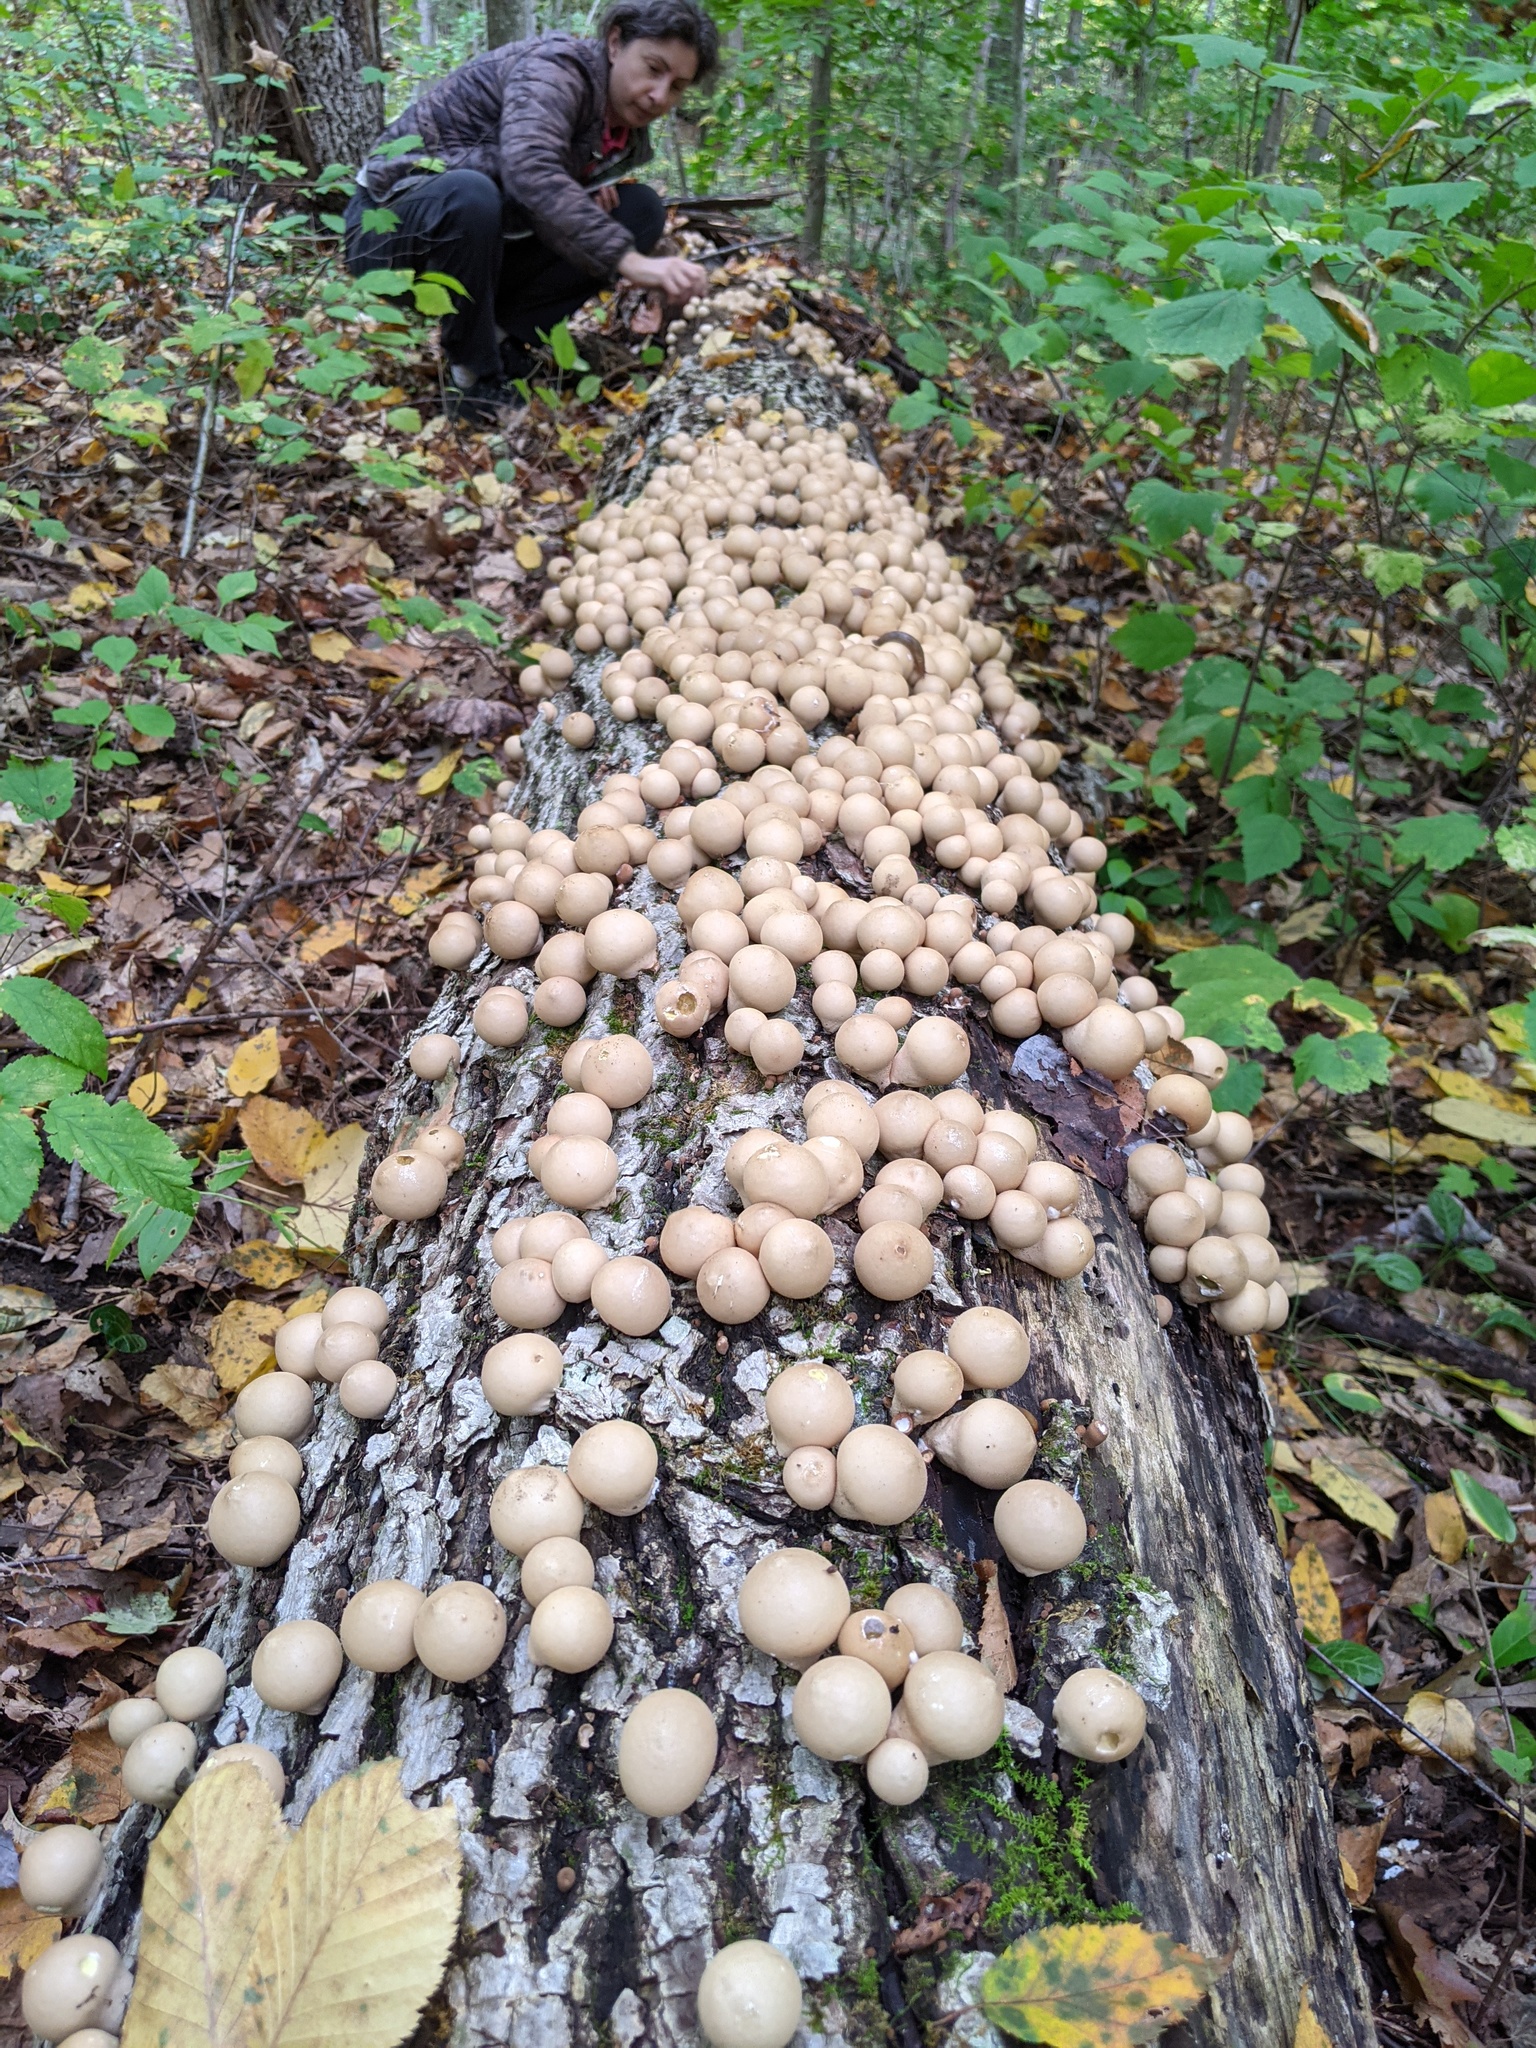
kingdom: Fungi
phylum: Basidiomycota
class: Agaricomycetes
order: Agaricales
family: Lycoperdaceae
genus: Apioperdon
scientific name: Apioperdon pyriforme
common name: Pear-shaped puffball
